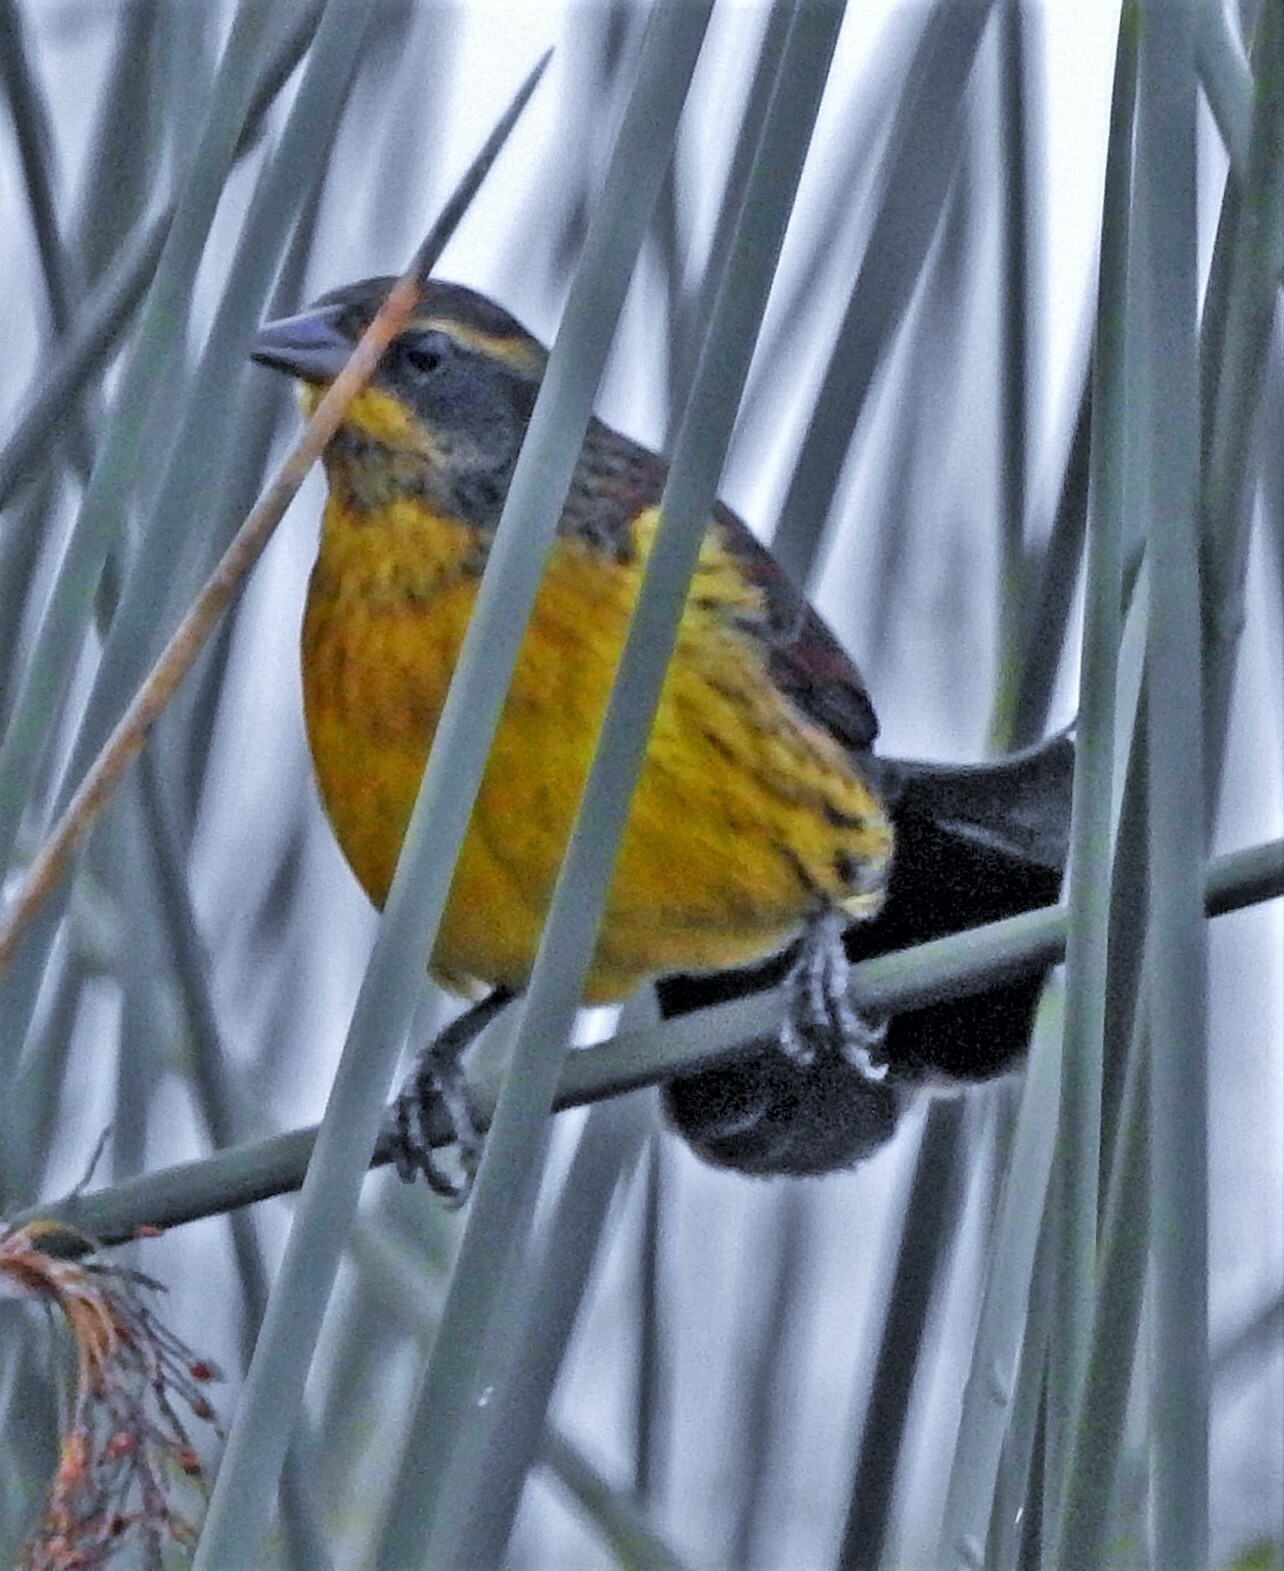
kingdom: Animalia
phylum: Chordata
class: Aves
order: Passeriformes
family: Icteridae
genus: Agelasticus
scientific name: Agelasticus cyanopus
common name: Unicolored blackbird
